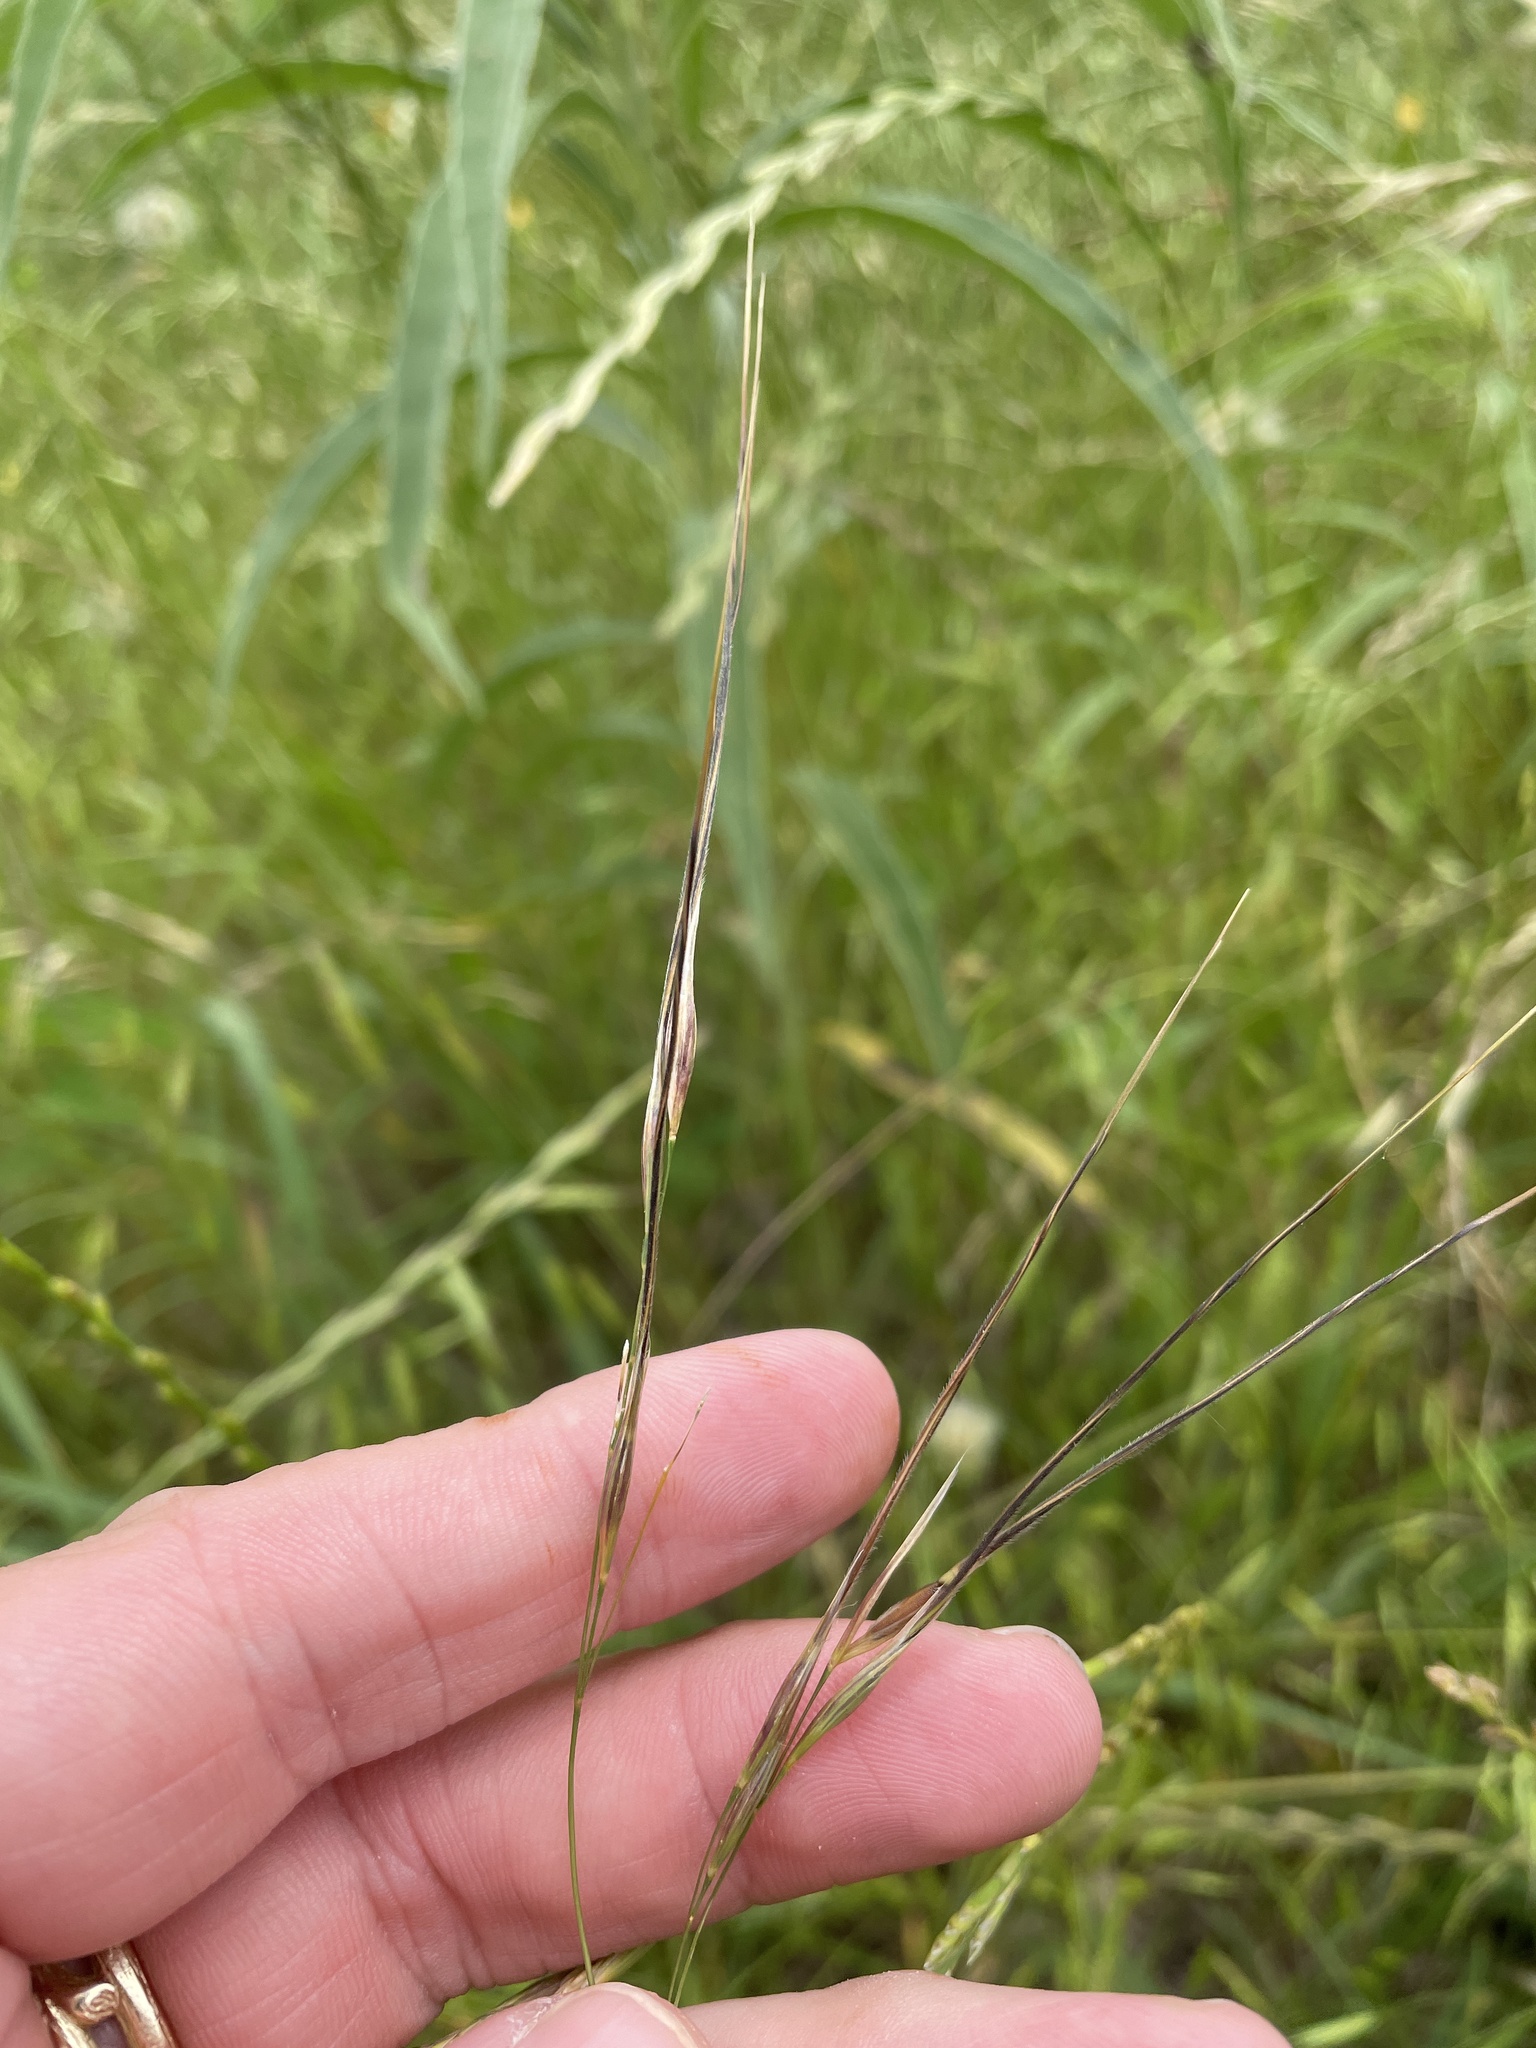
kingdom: Plantae
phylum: Tracheophyta
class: Liliopsida
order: Poales
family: Poaceae
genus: Nassella
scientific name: Nassella leucotricha
